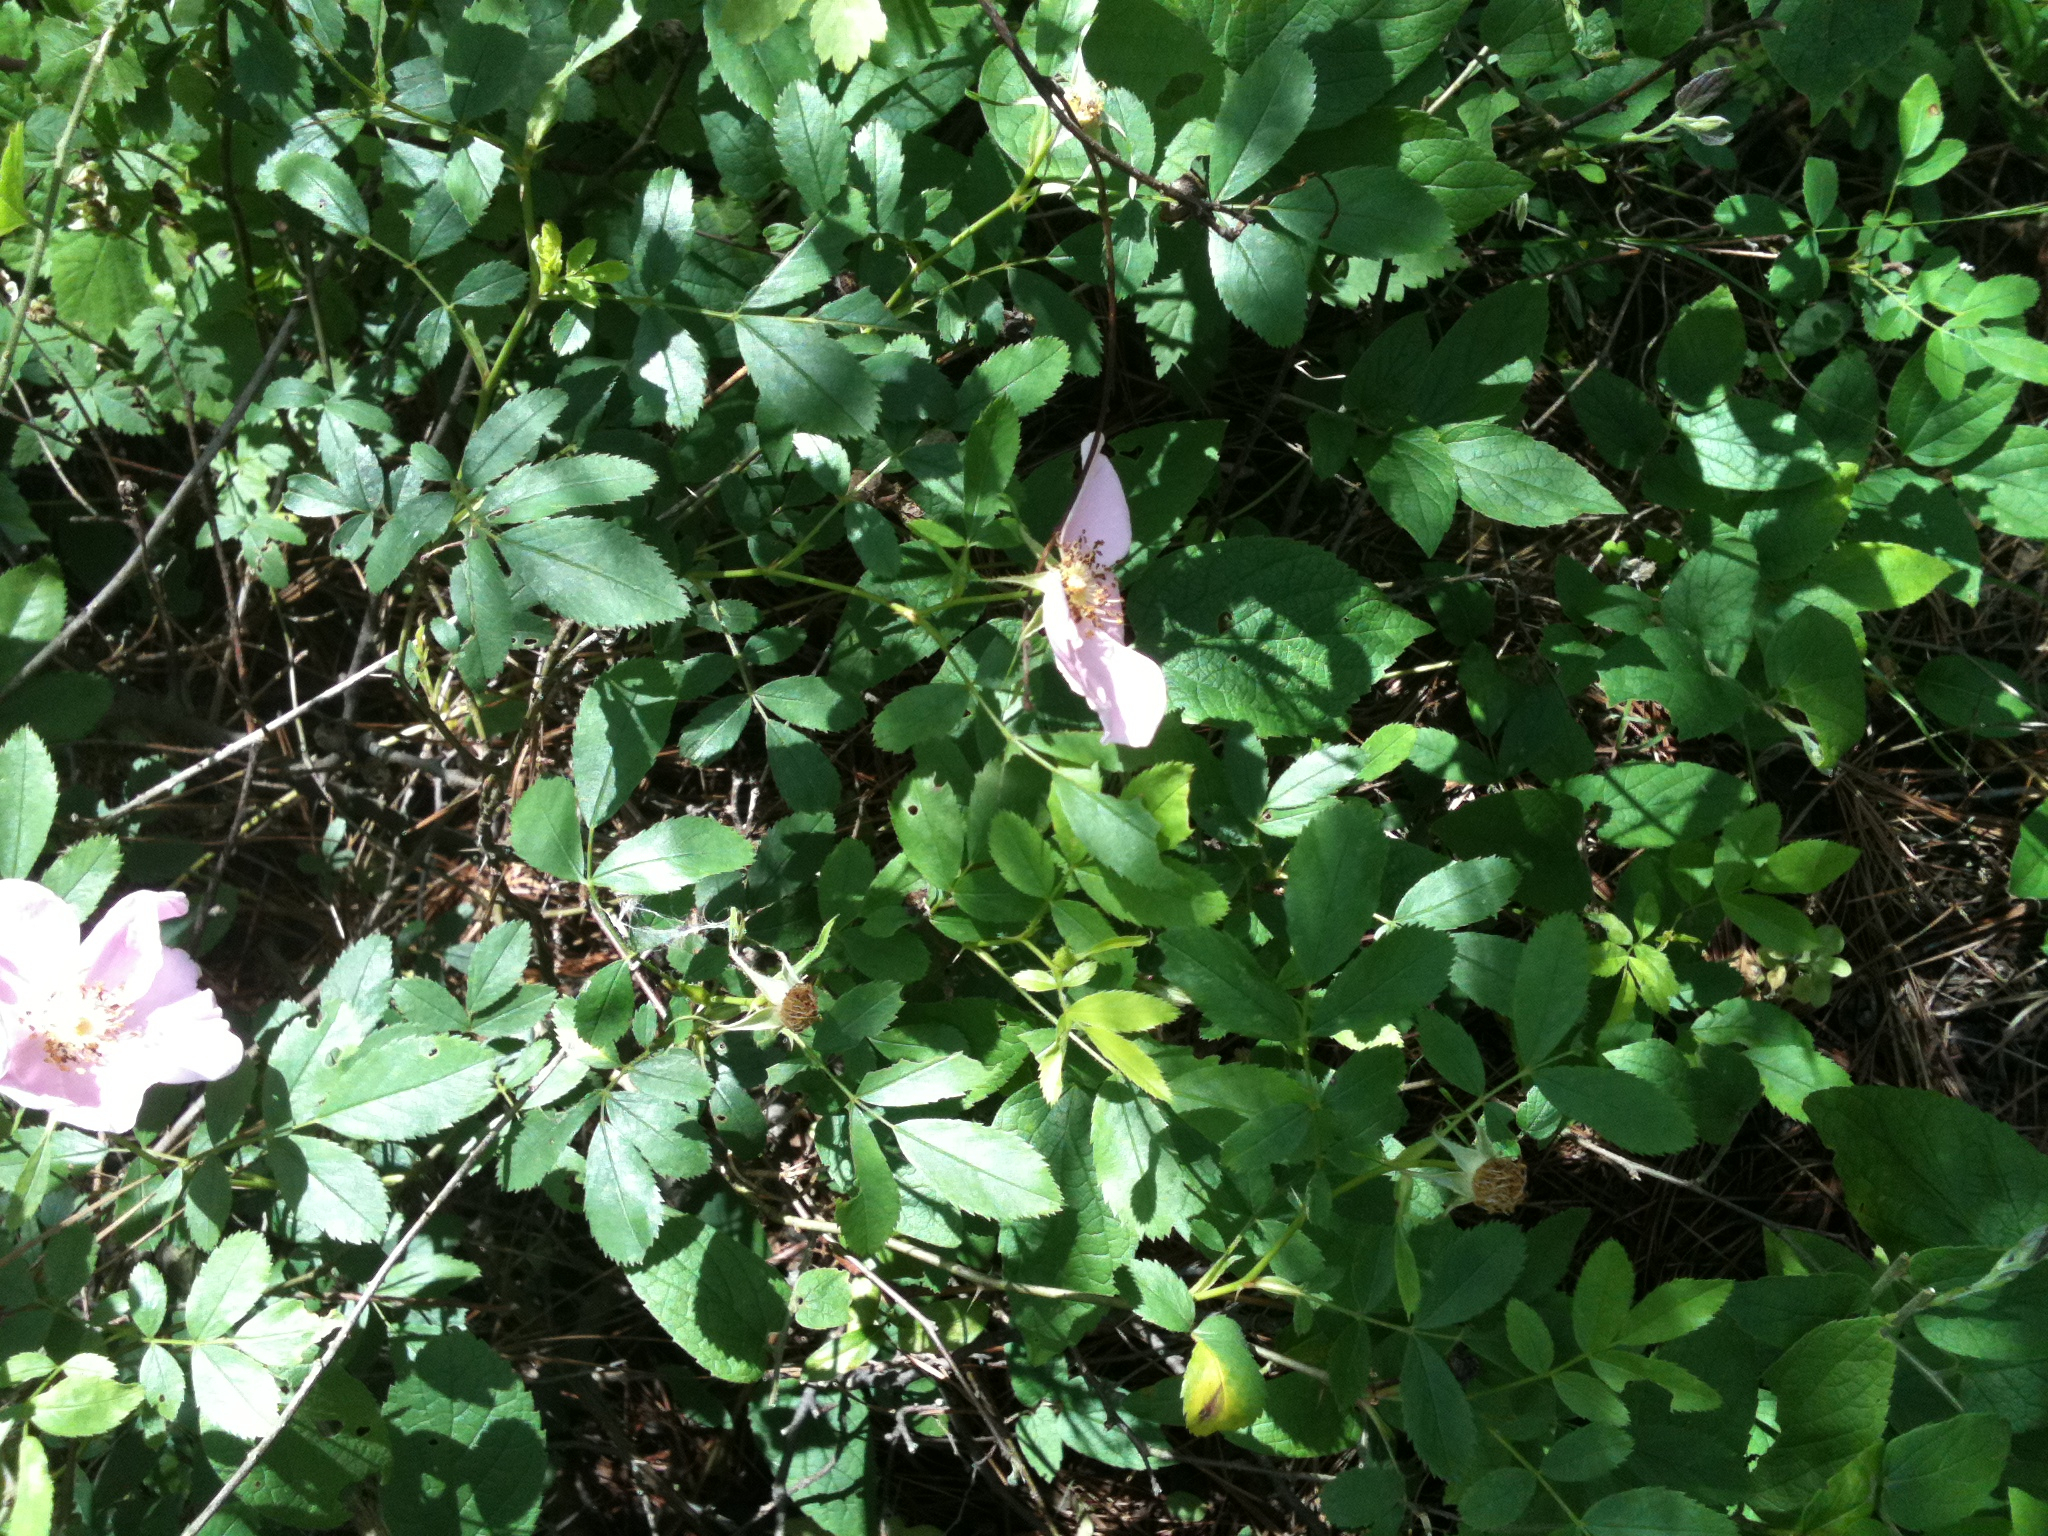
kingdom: Plantae
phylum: Tracheophyta
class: Magnoliopsida
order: Rosales
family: Rosaceae
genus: Rosa
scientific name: Rosa
